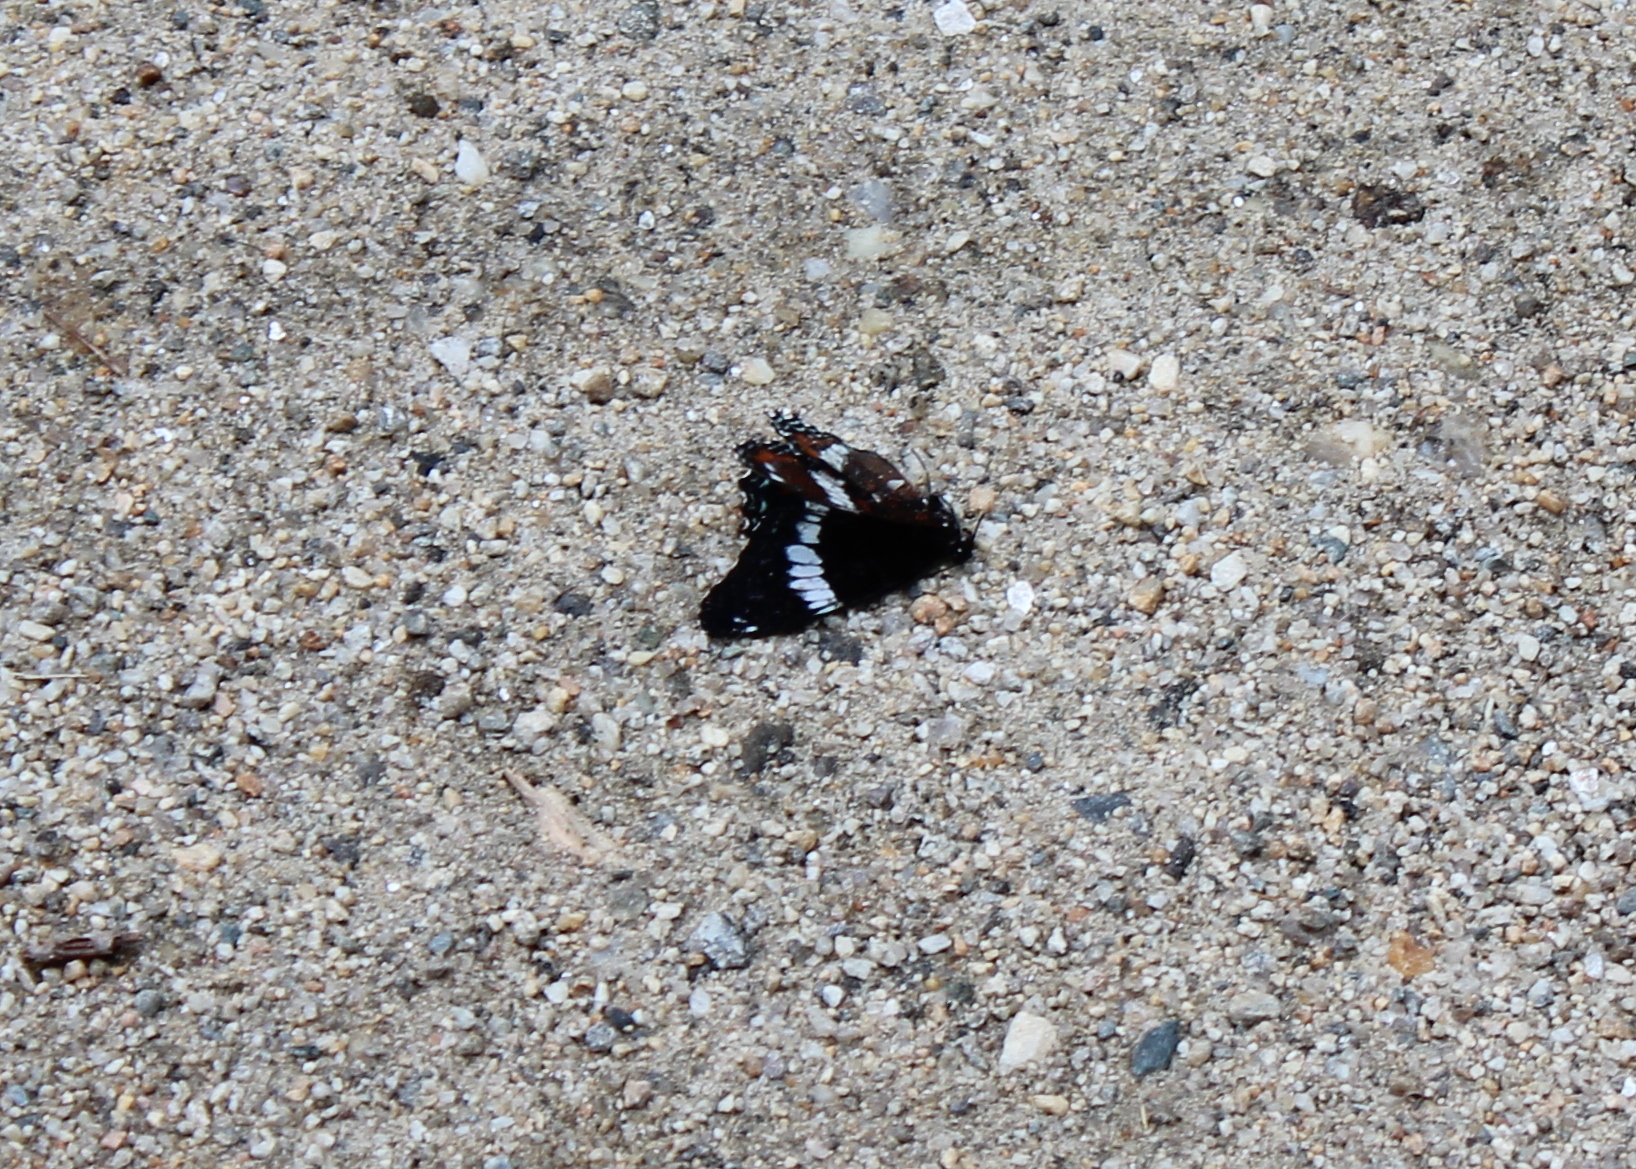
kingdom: Animalia
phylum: Arthropoda
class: Insecta
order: Lepidoptera
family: Nymphalidae
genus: Limenitis
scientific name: Limenitis arthemis
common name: Red-spotted admiral
